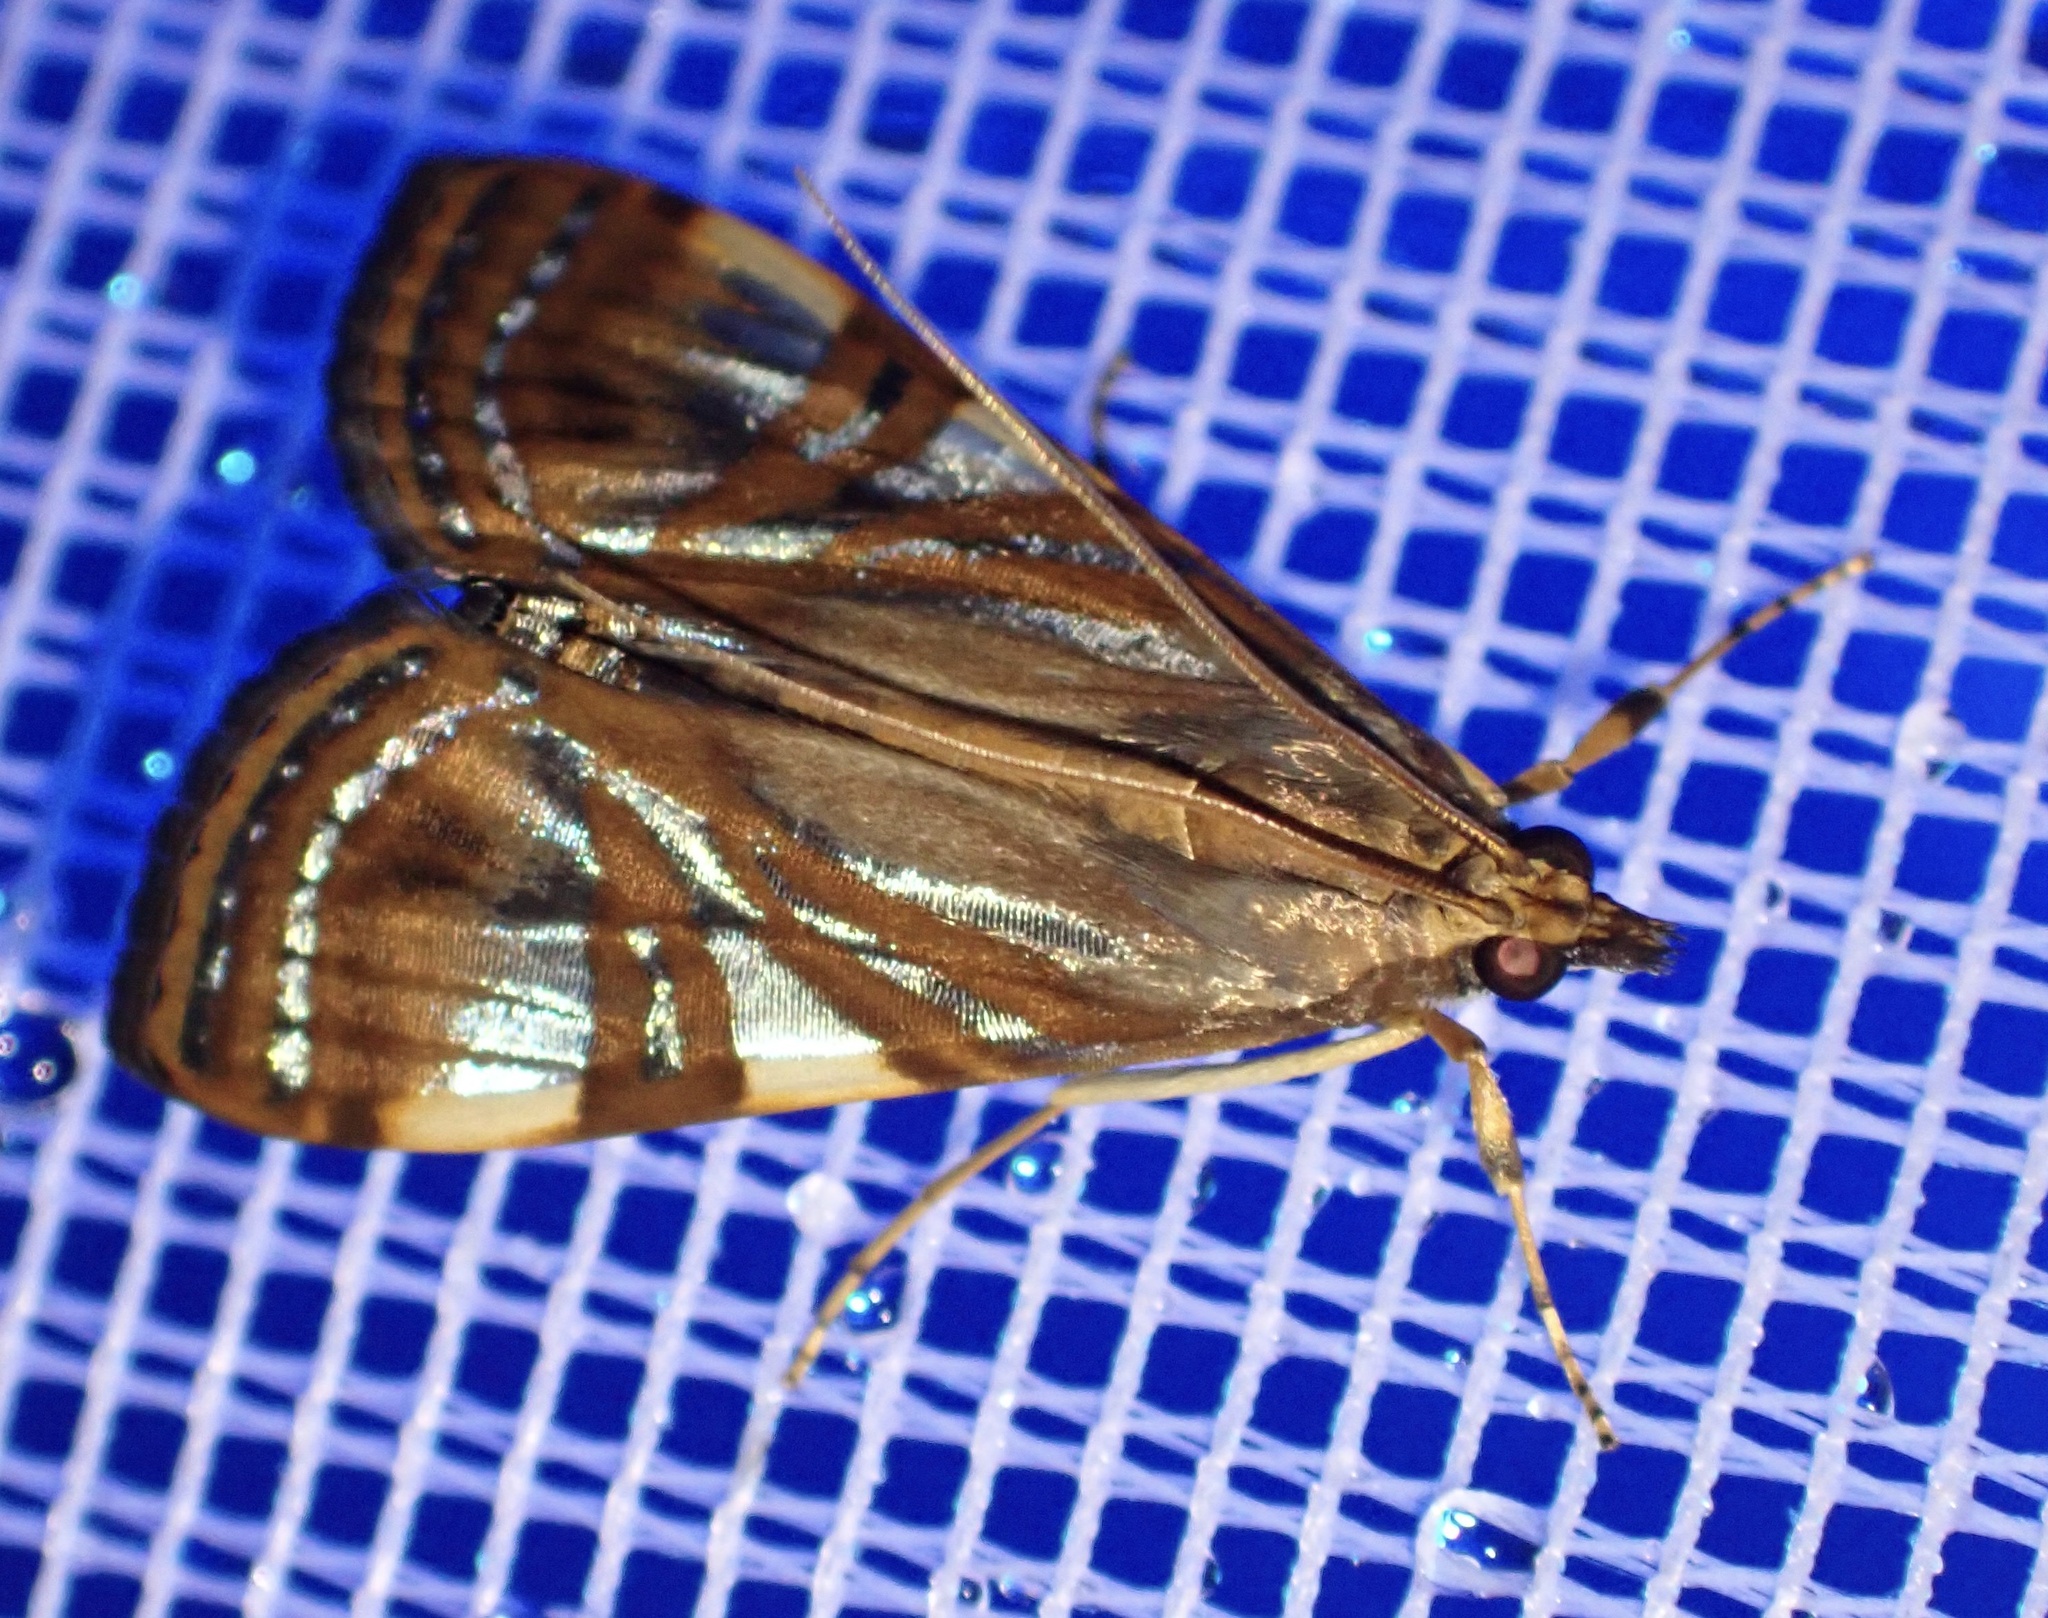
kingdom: Animalia
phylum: Arthropoda
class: Insecta
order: Lepidoptera
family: Crambidae
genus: Glyphodes
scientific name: Glyphodes
